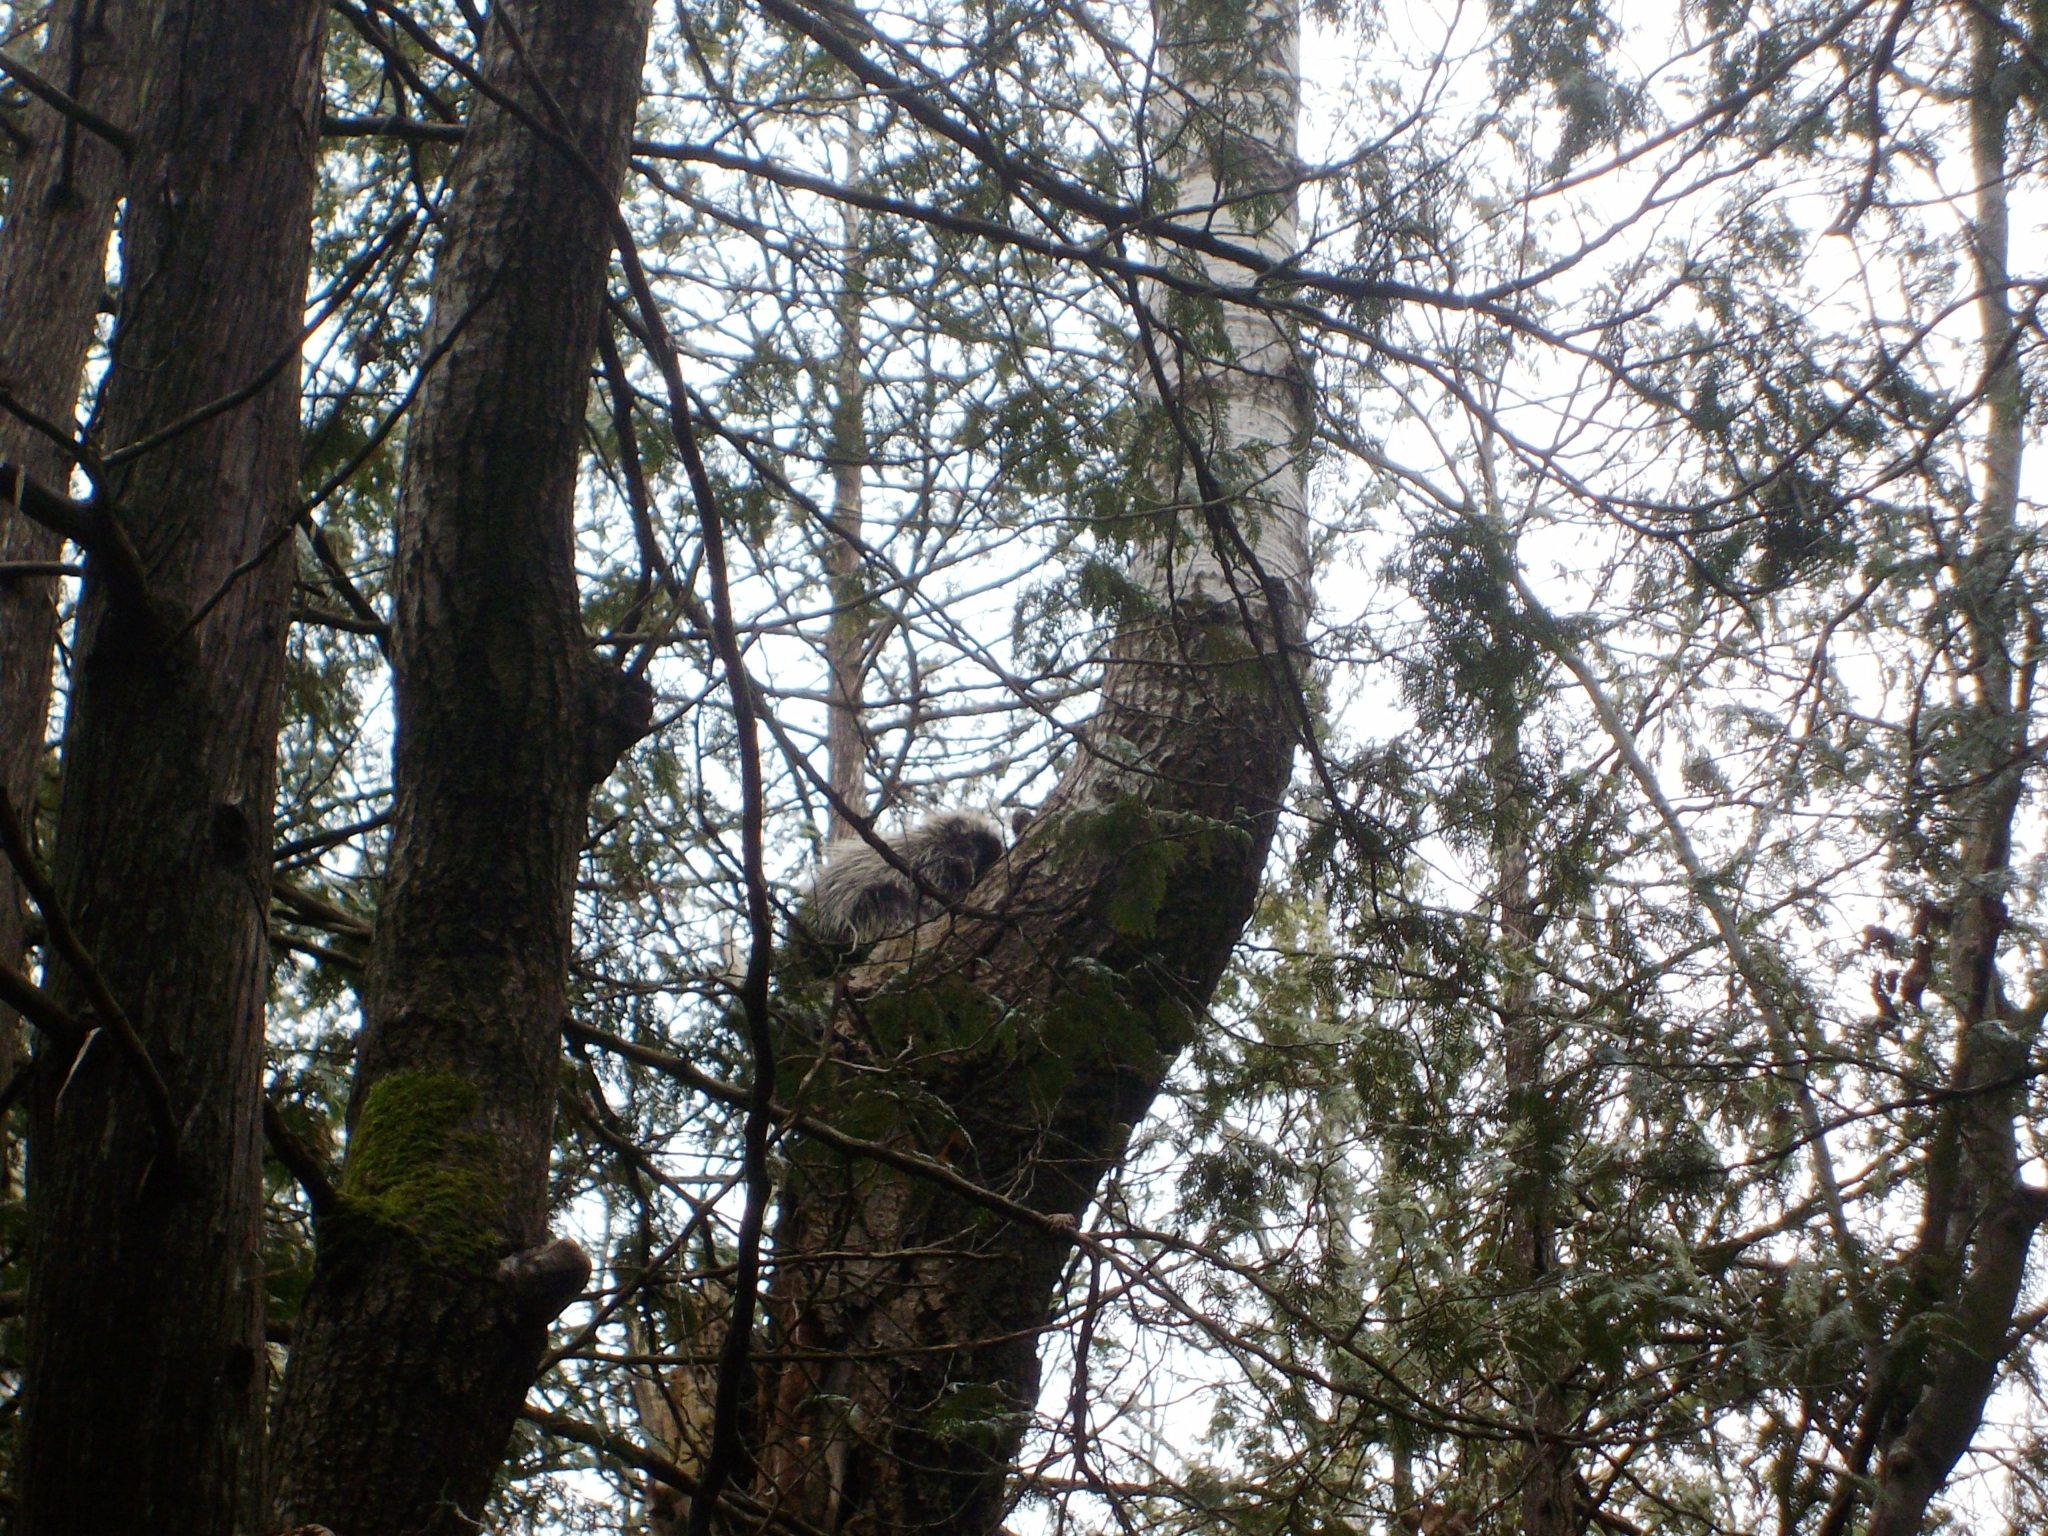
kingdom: Animalia
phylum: Chordata
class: Mammalia
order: Rodentia
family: Erethizontidae
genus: Erethizon
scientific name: Erethizon dorsatus
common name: North american porcupine
